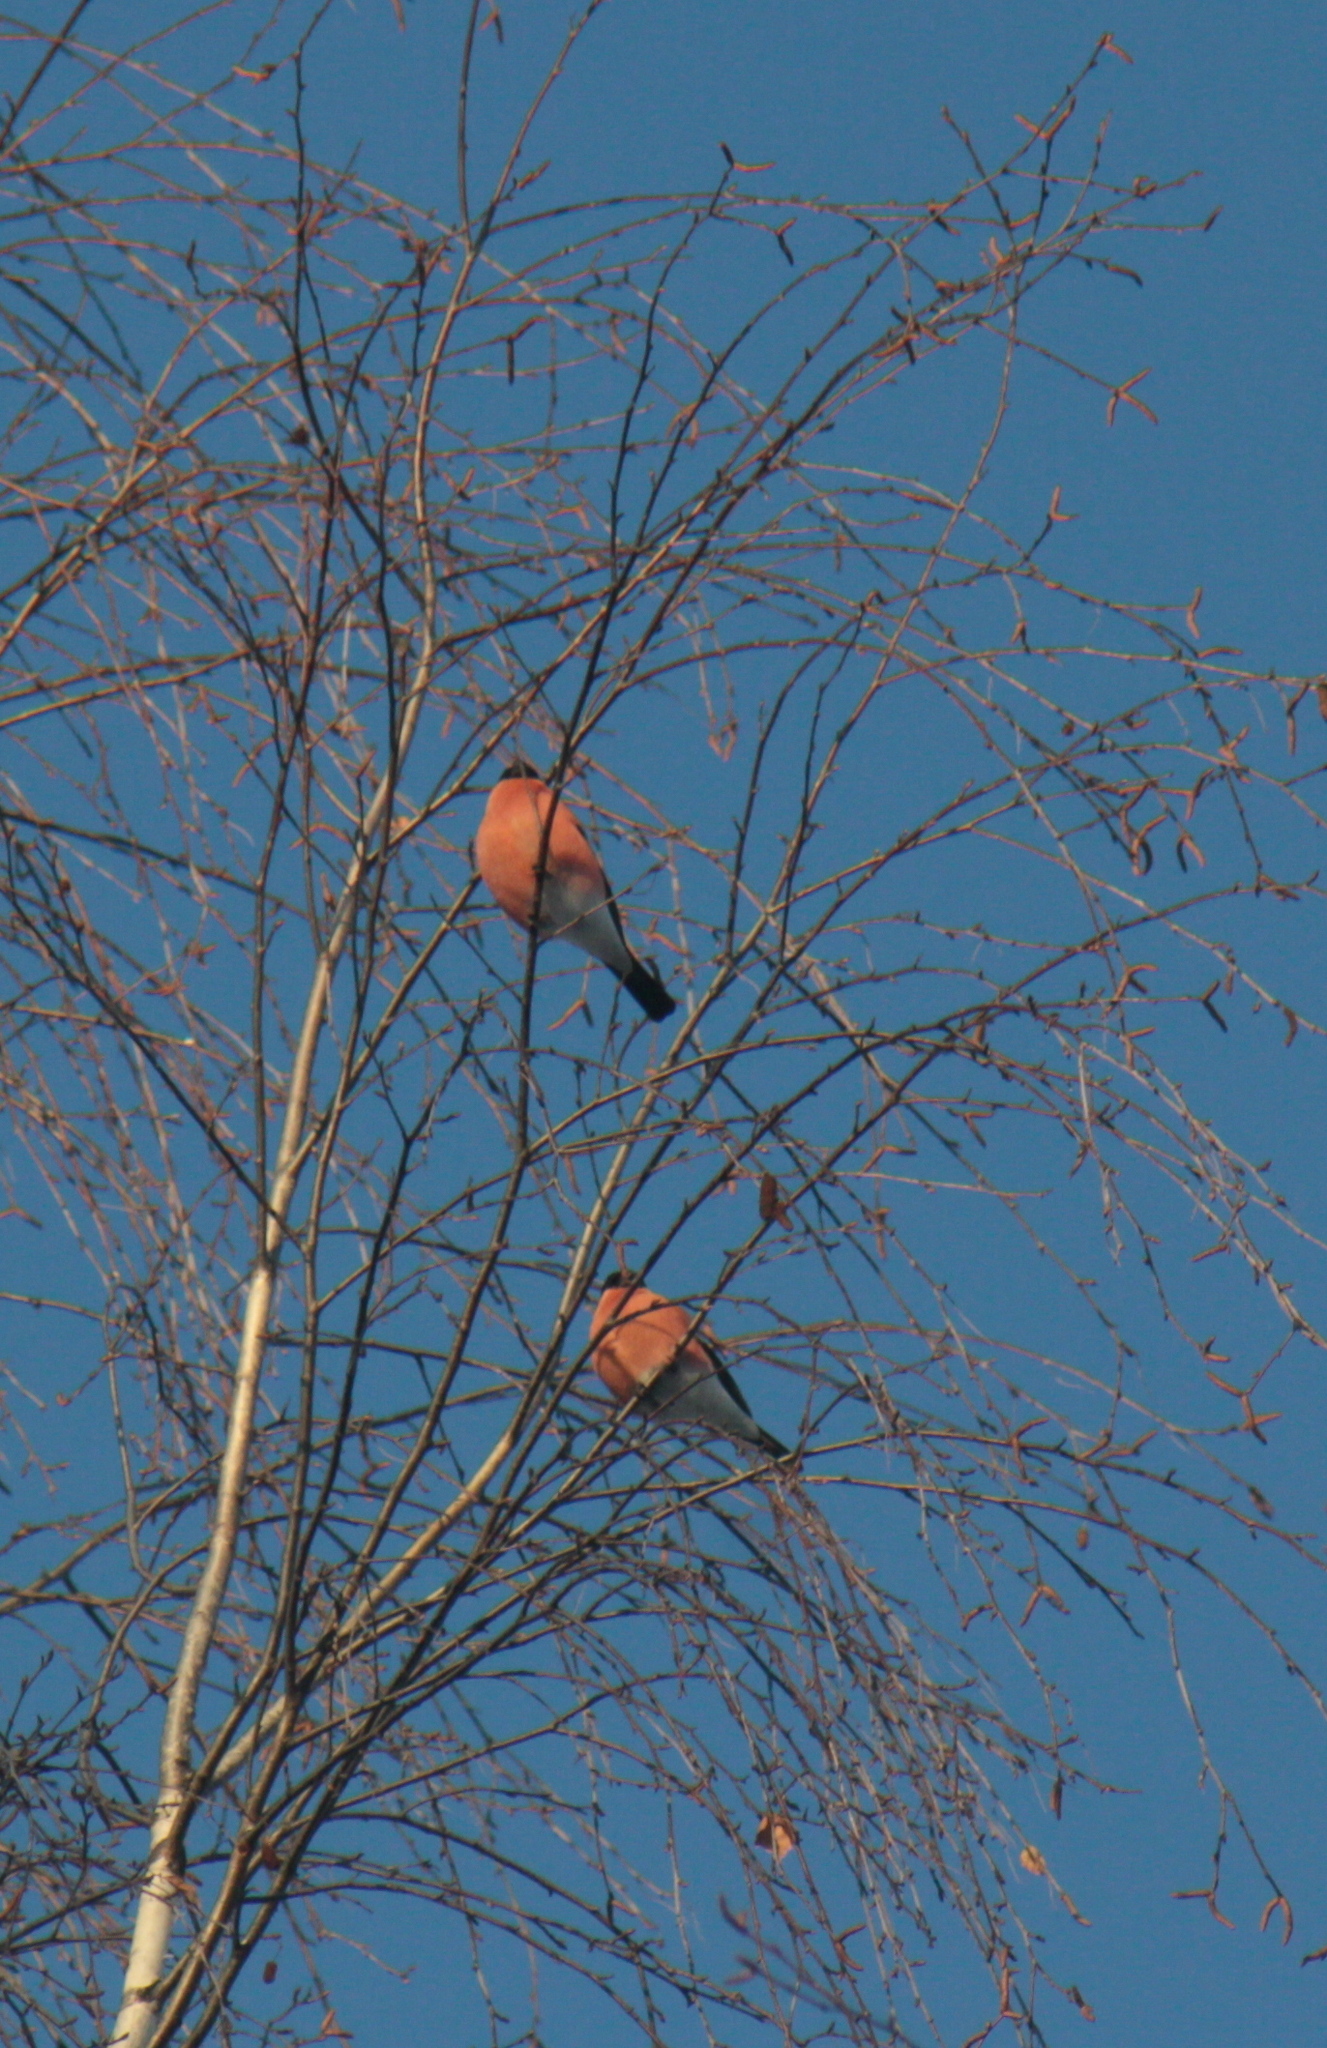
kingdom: Animalia
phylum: Chordata
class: Aves
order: Passeriformes
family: Fringillidae
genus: Pyrrhula
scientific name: Pyrrhula pyrrhula
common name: Eurasian bullfinch
